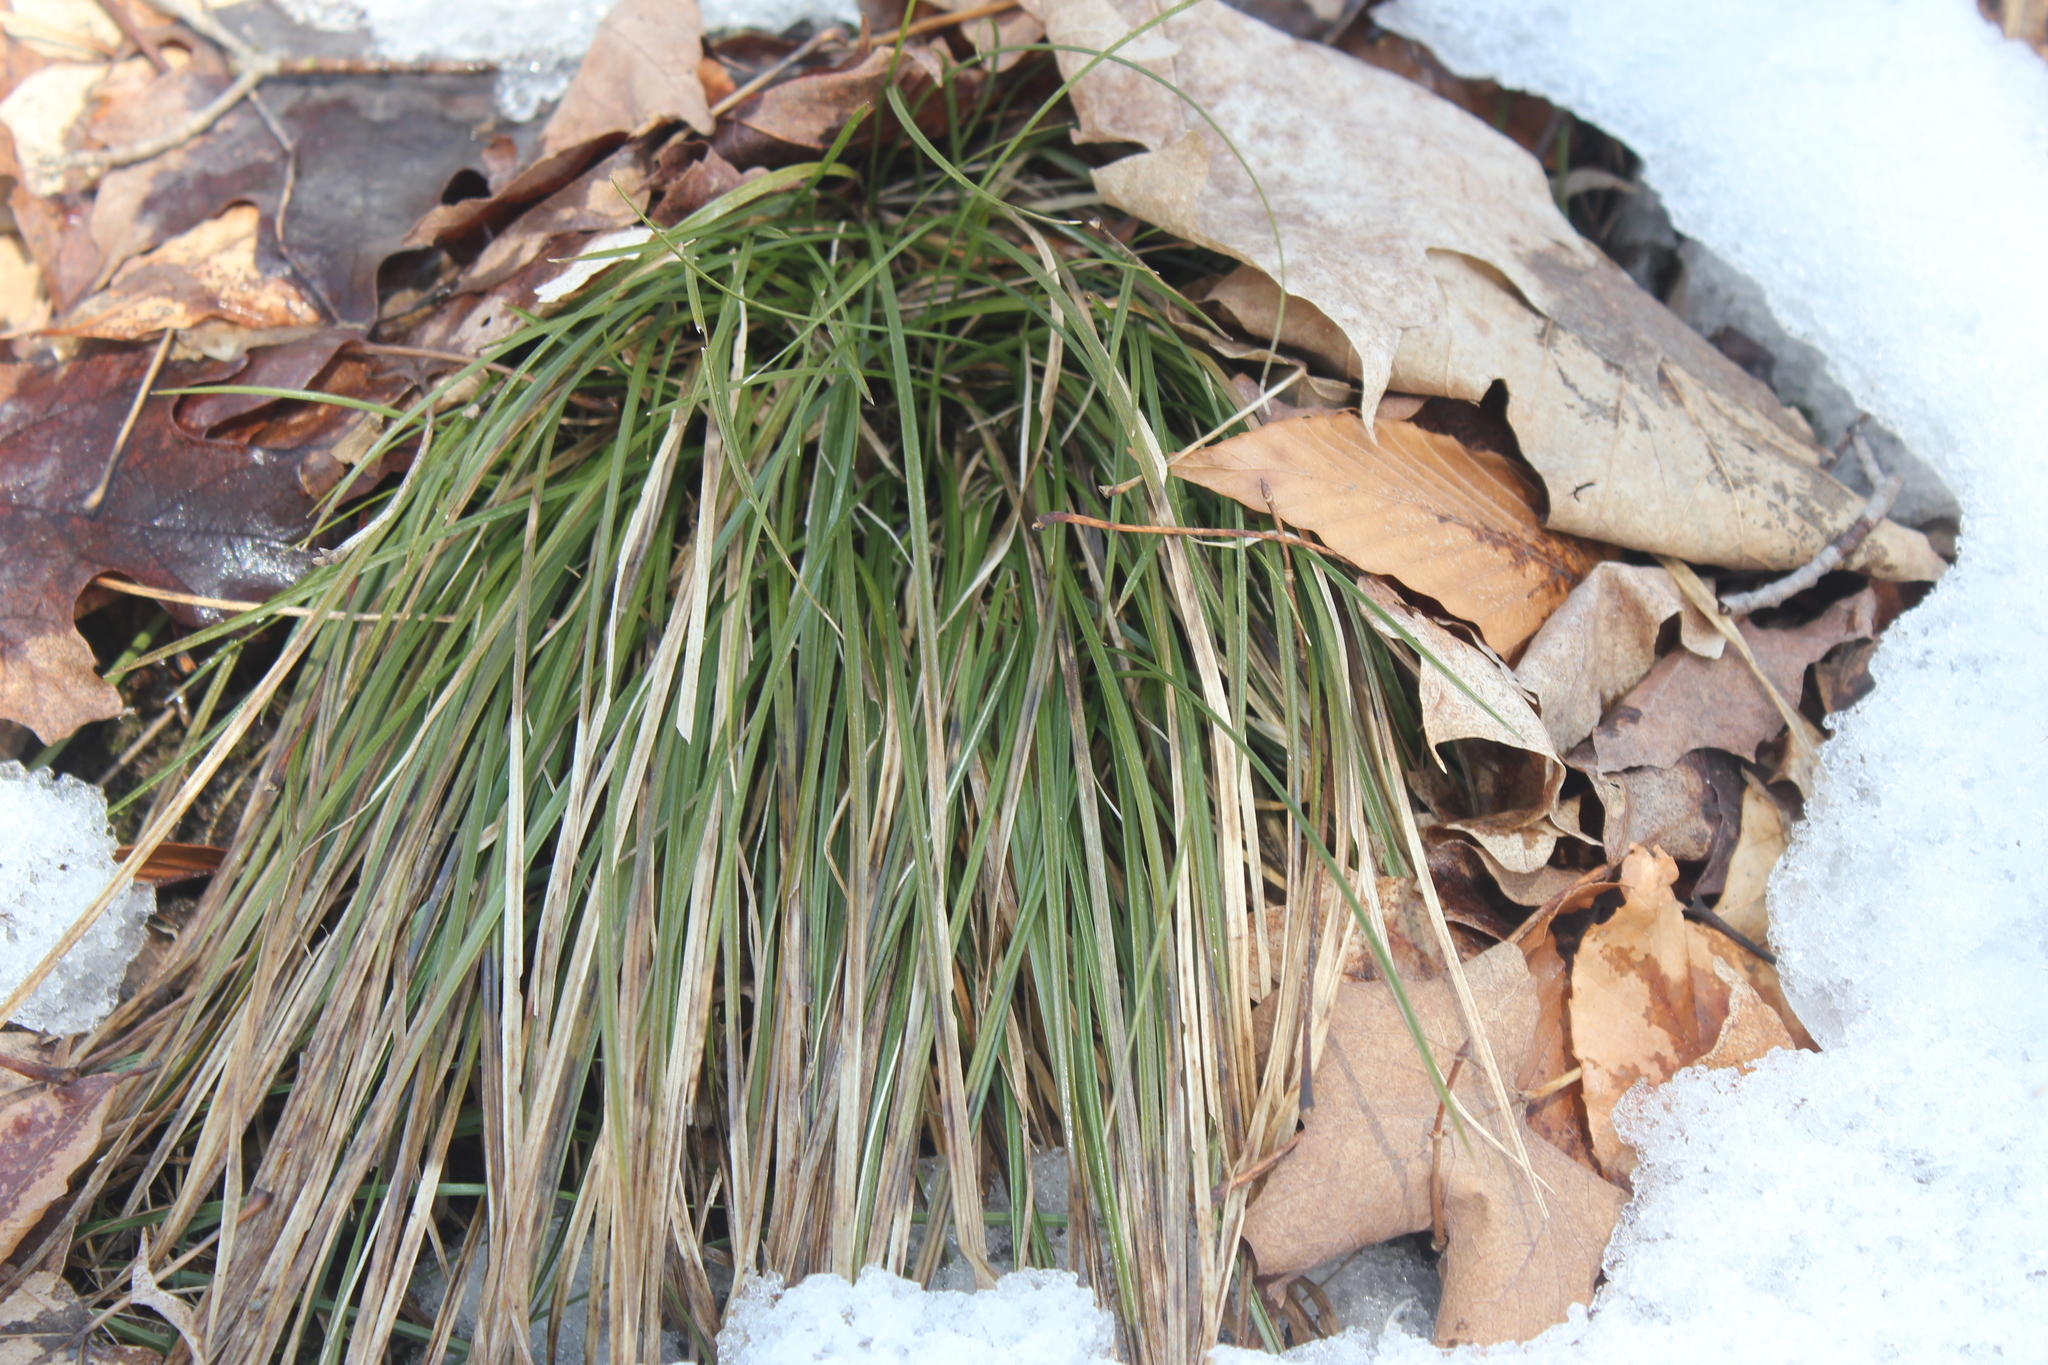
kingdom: Plantae
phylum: Tracheophyta
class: Liliopsida
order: Poales
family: Cyperaceae
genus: Carex
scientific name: Carex pedunculata
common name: Pedunculate sedge
